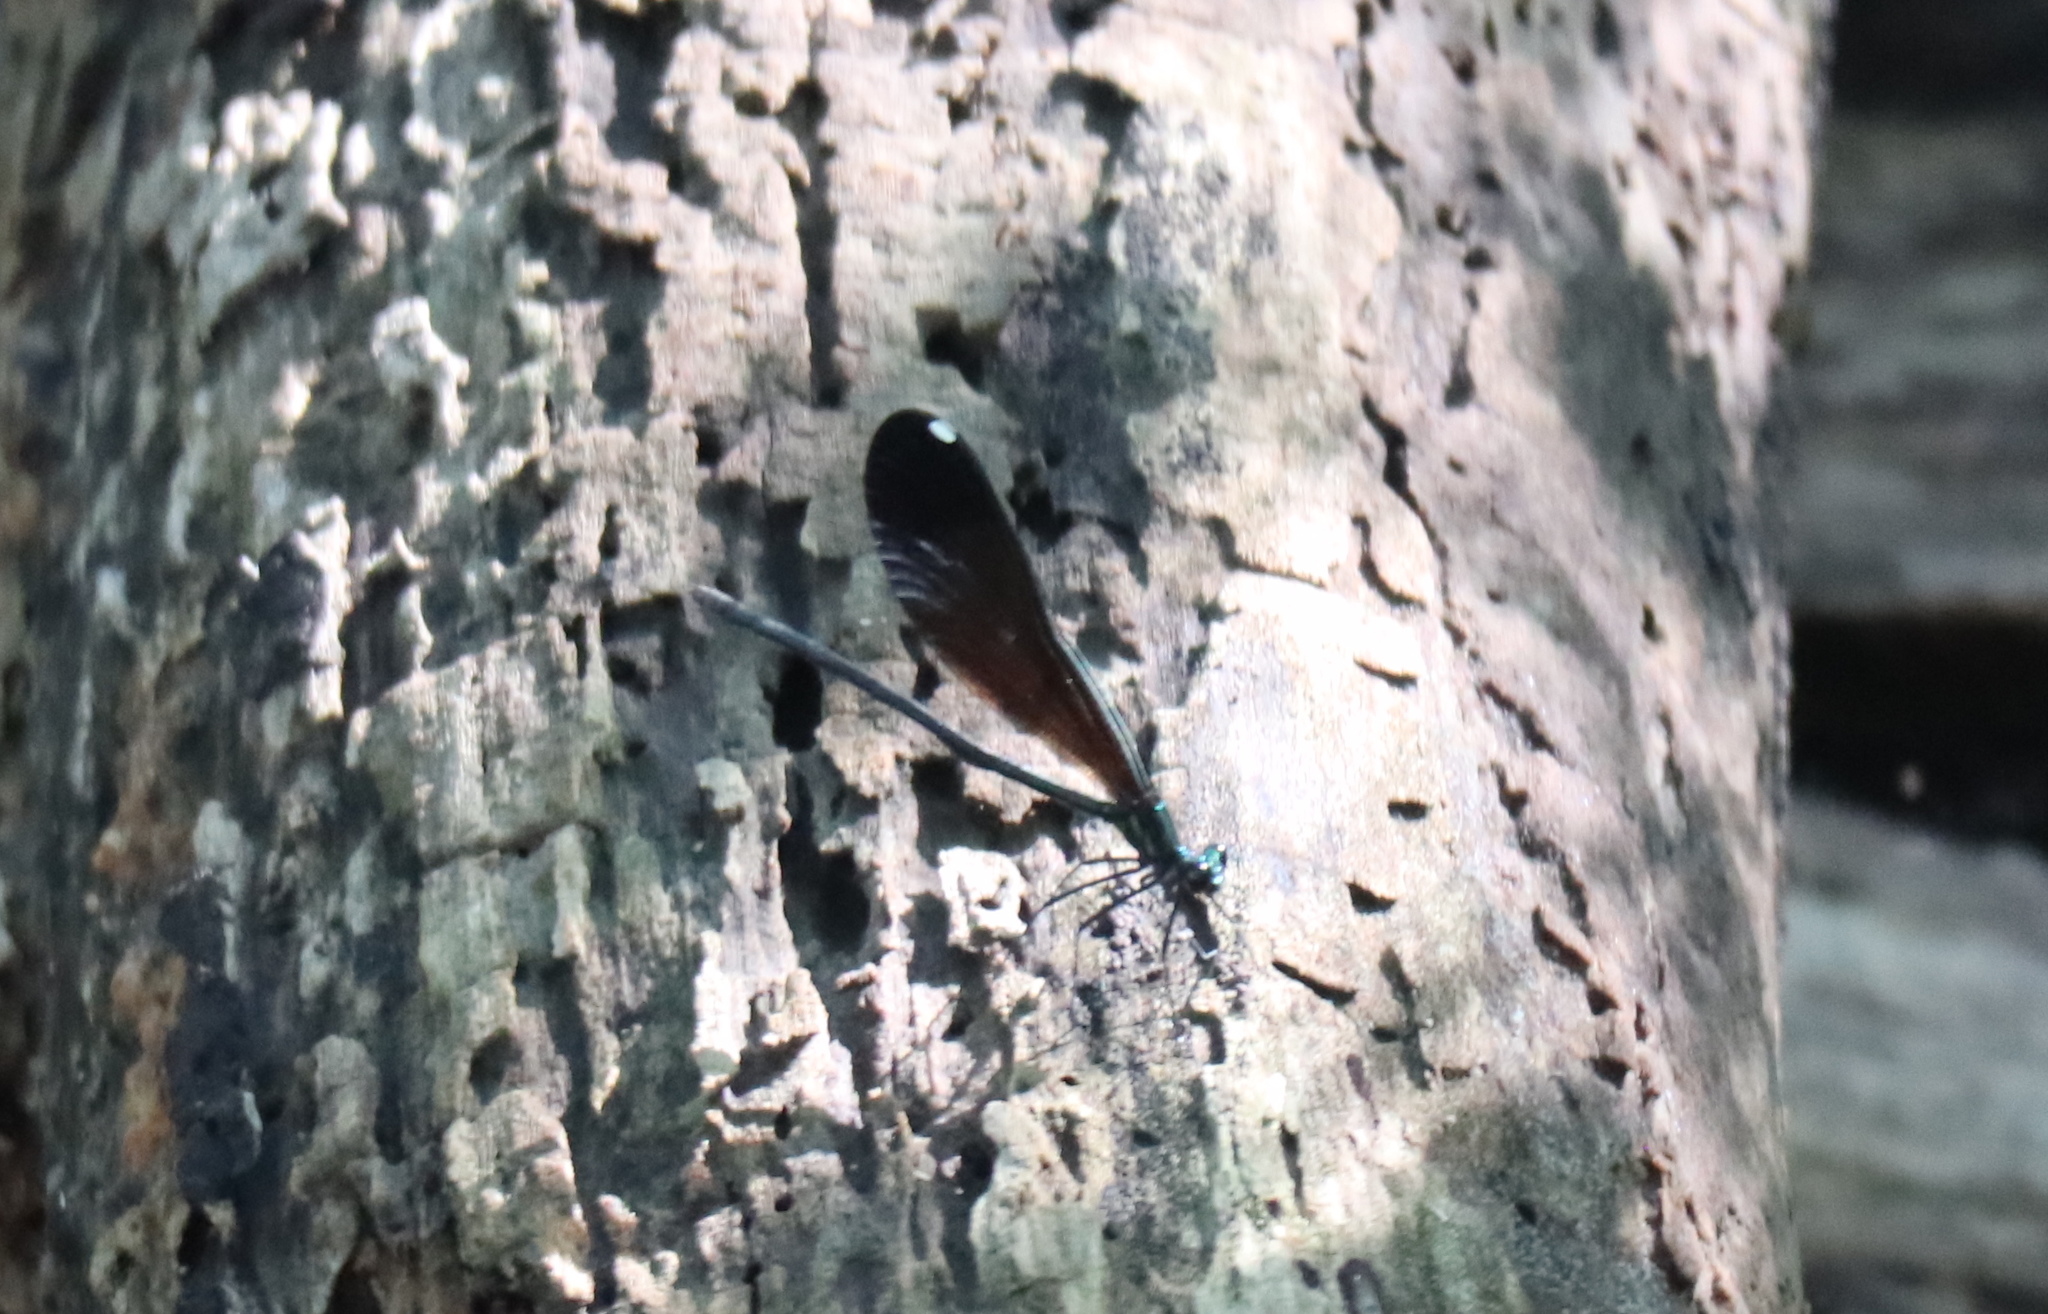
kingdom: Animalia
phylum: Arthropoda
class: Insecta
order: Odonata
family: Calopterygidae
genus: Calopteryx
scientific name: Calopteryx maculata
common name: Ebony jewelwing
